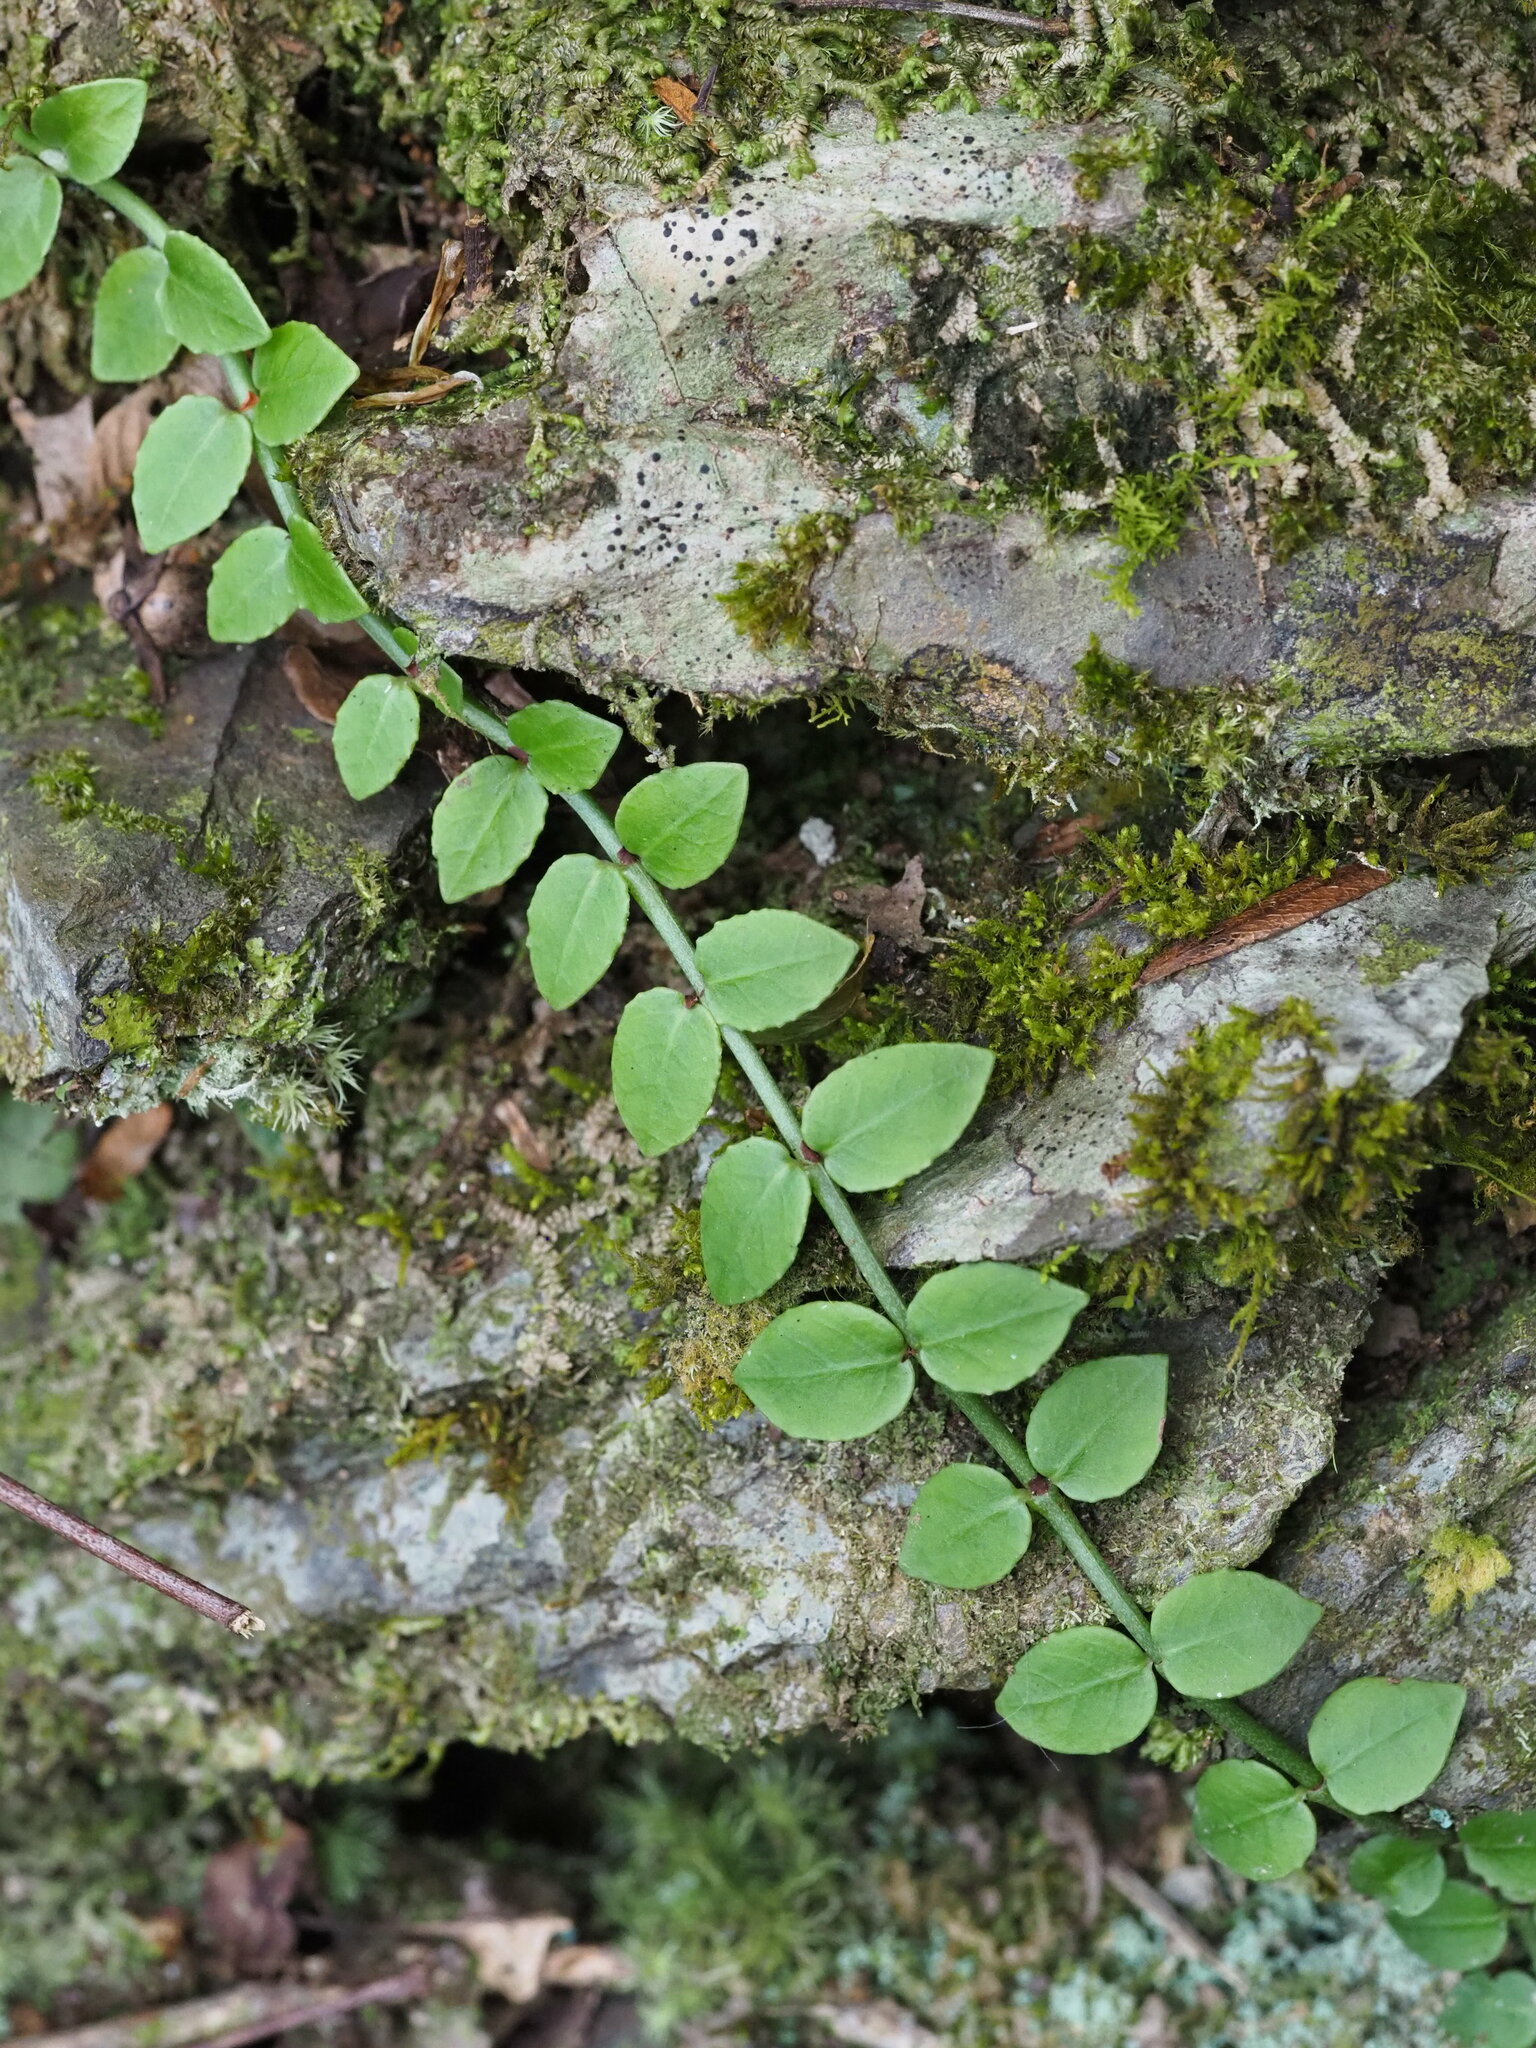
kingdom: Plantae
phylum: Tracheophyta
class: Magnoliopsida
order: Gentianales
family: Rubiaceae
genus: Psychotria
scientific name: Psychotria serpens
